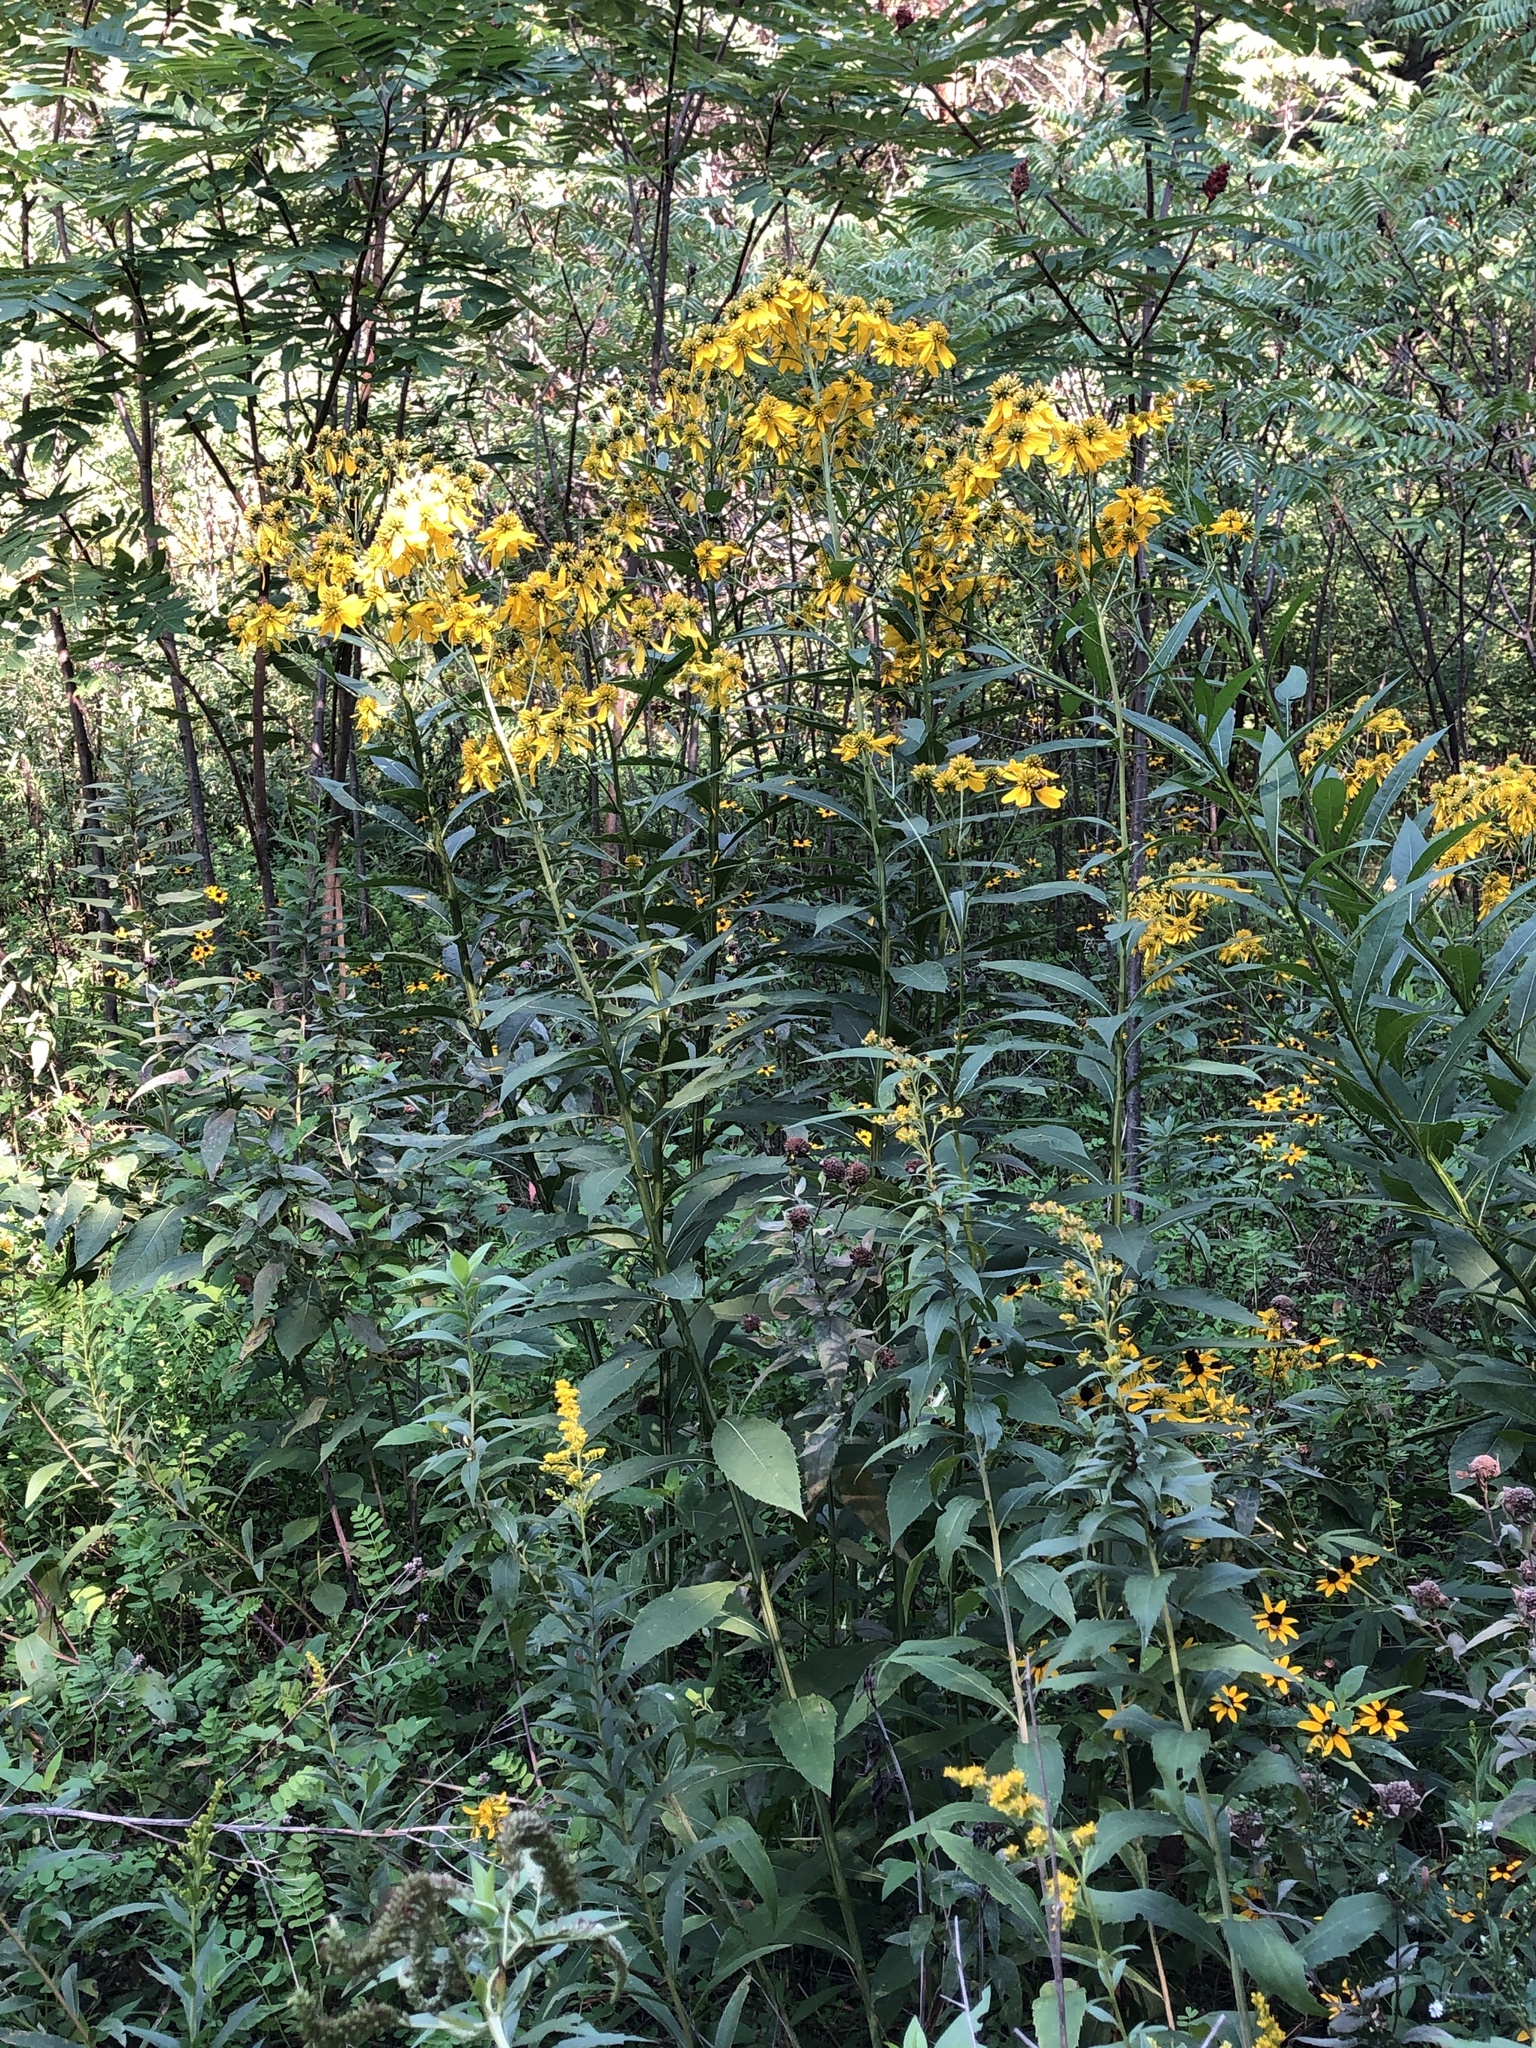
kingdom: Plantae
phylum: Tracheophyta
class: Magnoliopsida
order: Asterales
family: Asteraceae
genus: Verbesina
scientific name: Verbesina alternifolia
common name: Wingstem
